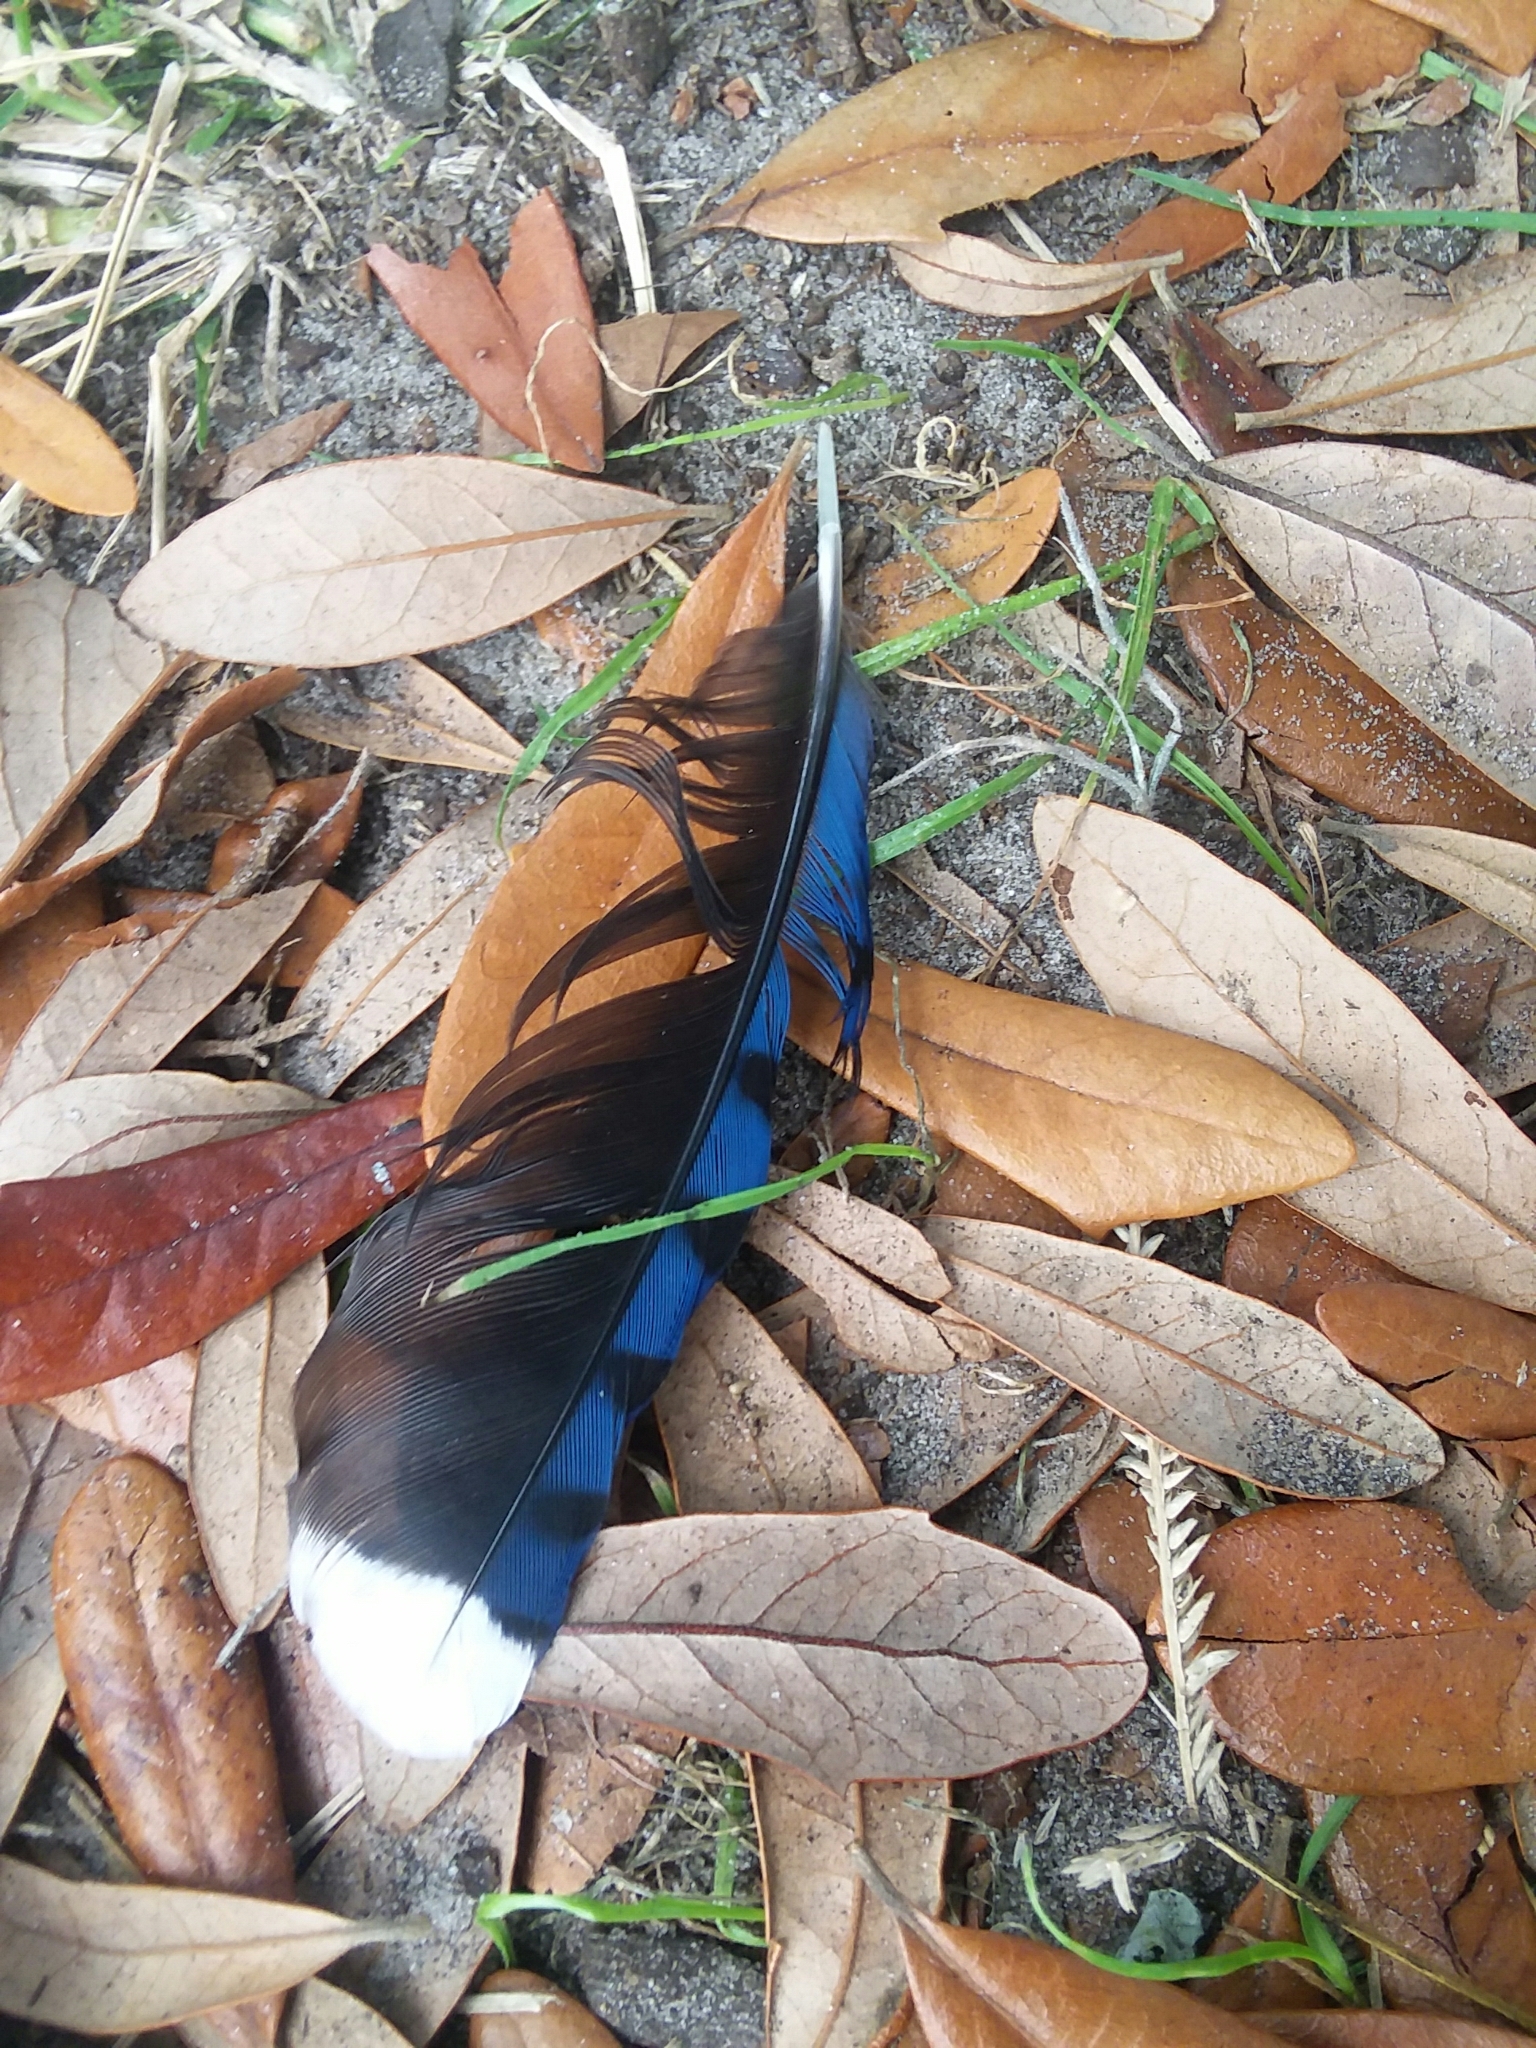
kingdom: Animalia
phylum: Chordata
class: Aves
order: Passeriformes
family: Corvidae
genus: Cyanocitta
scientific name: Cyanocitta cristata
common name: Blue jay
